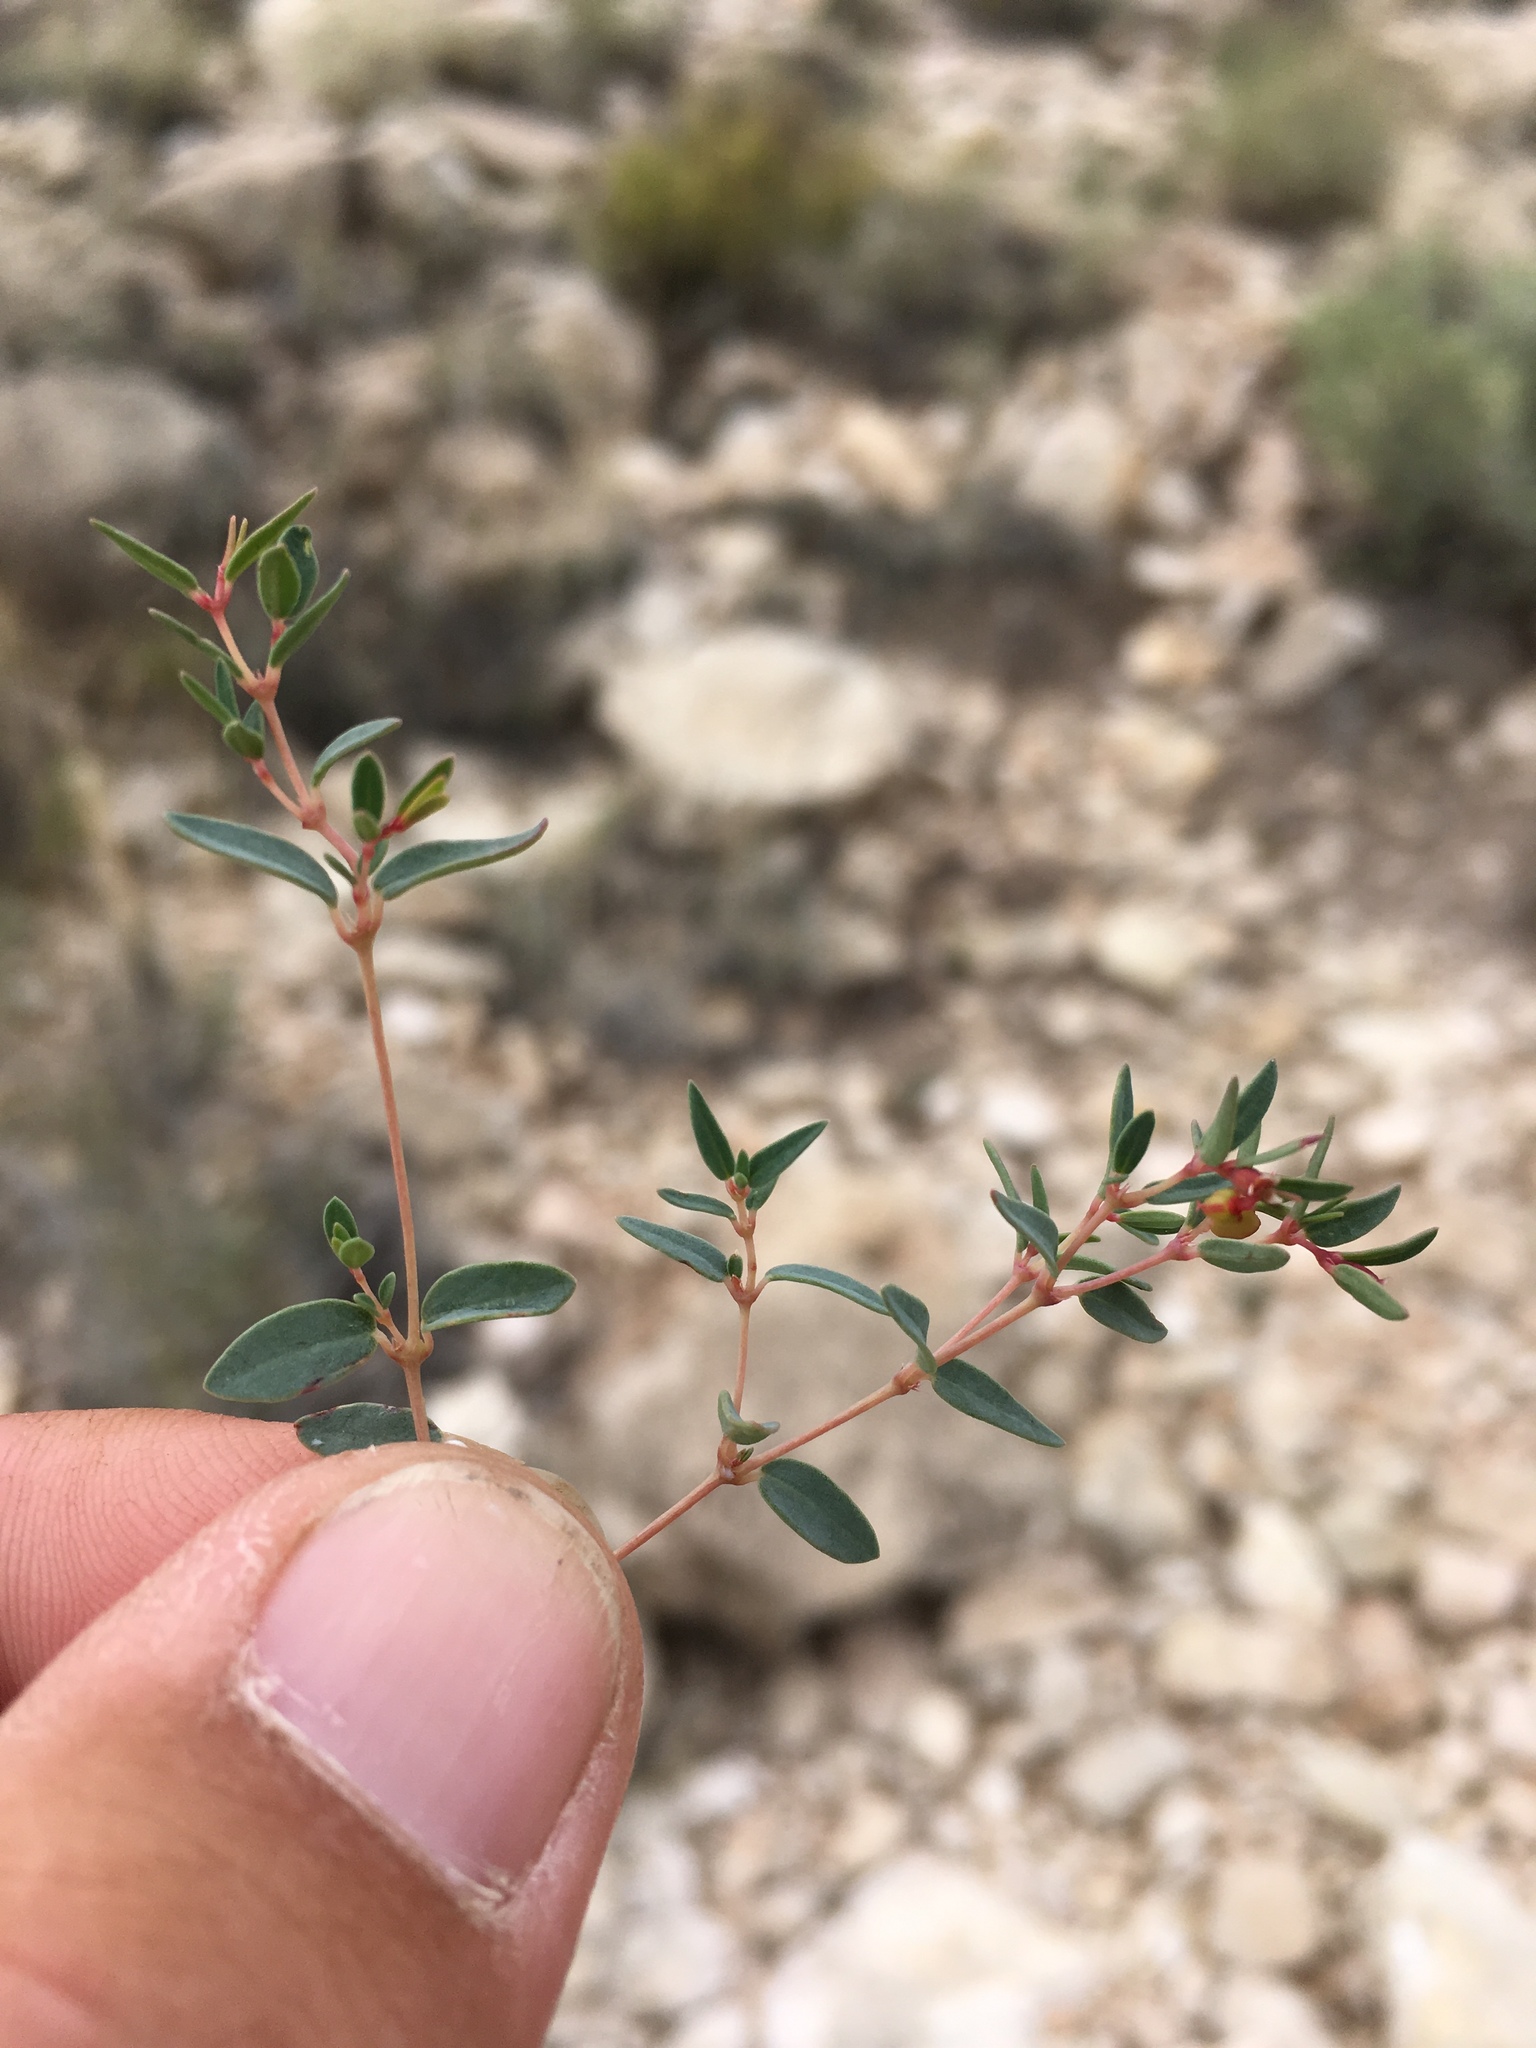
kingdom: Plantae
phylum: Tracheophyta
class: Magnoliopsida
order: Malpighiales
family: Euphorbiaceae
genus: Euphorbia
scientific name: Euphorbia chaetocalyx
